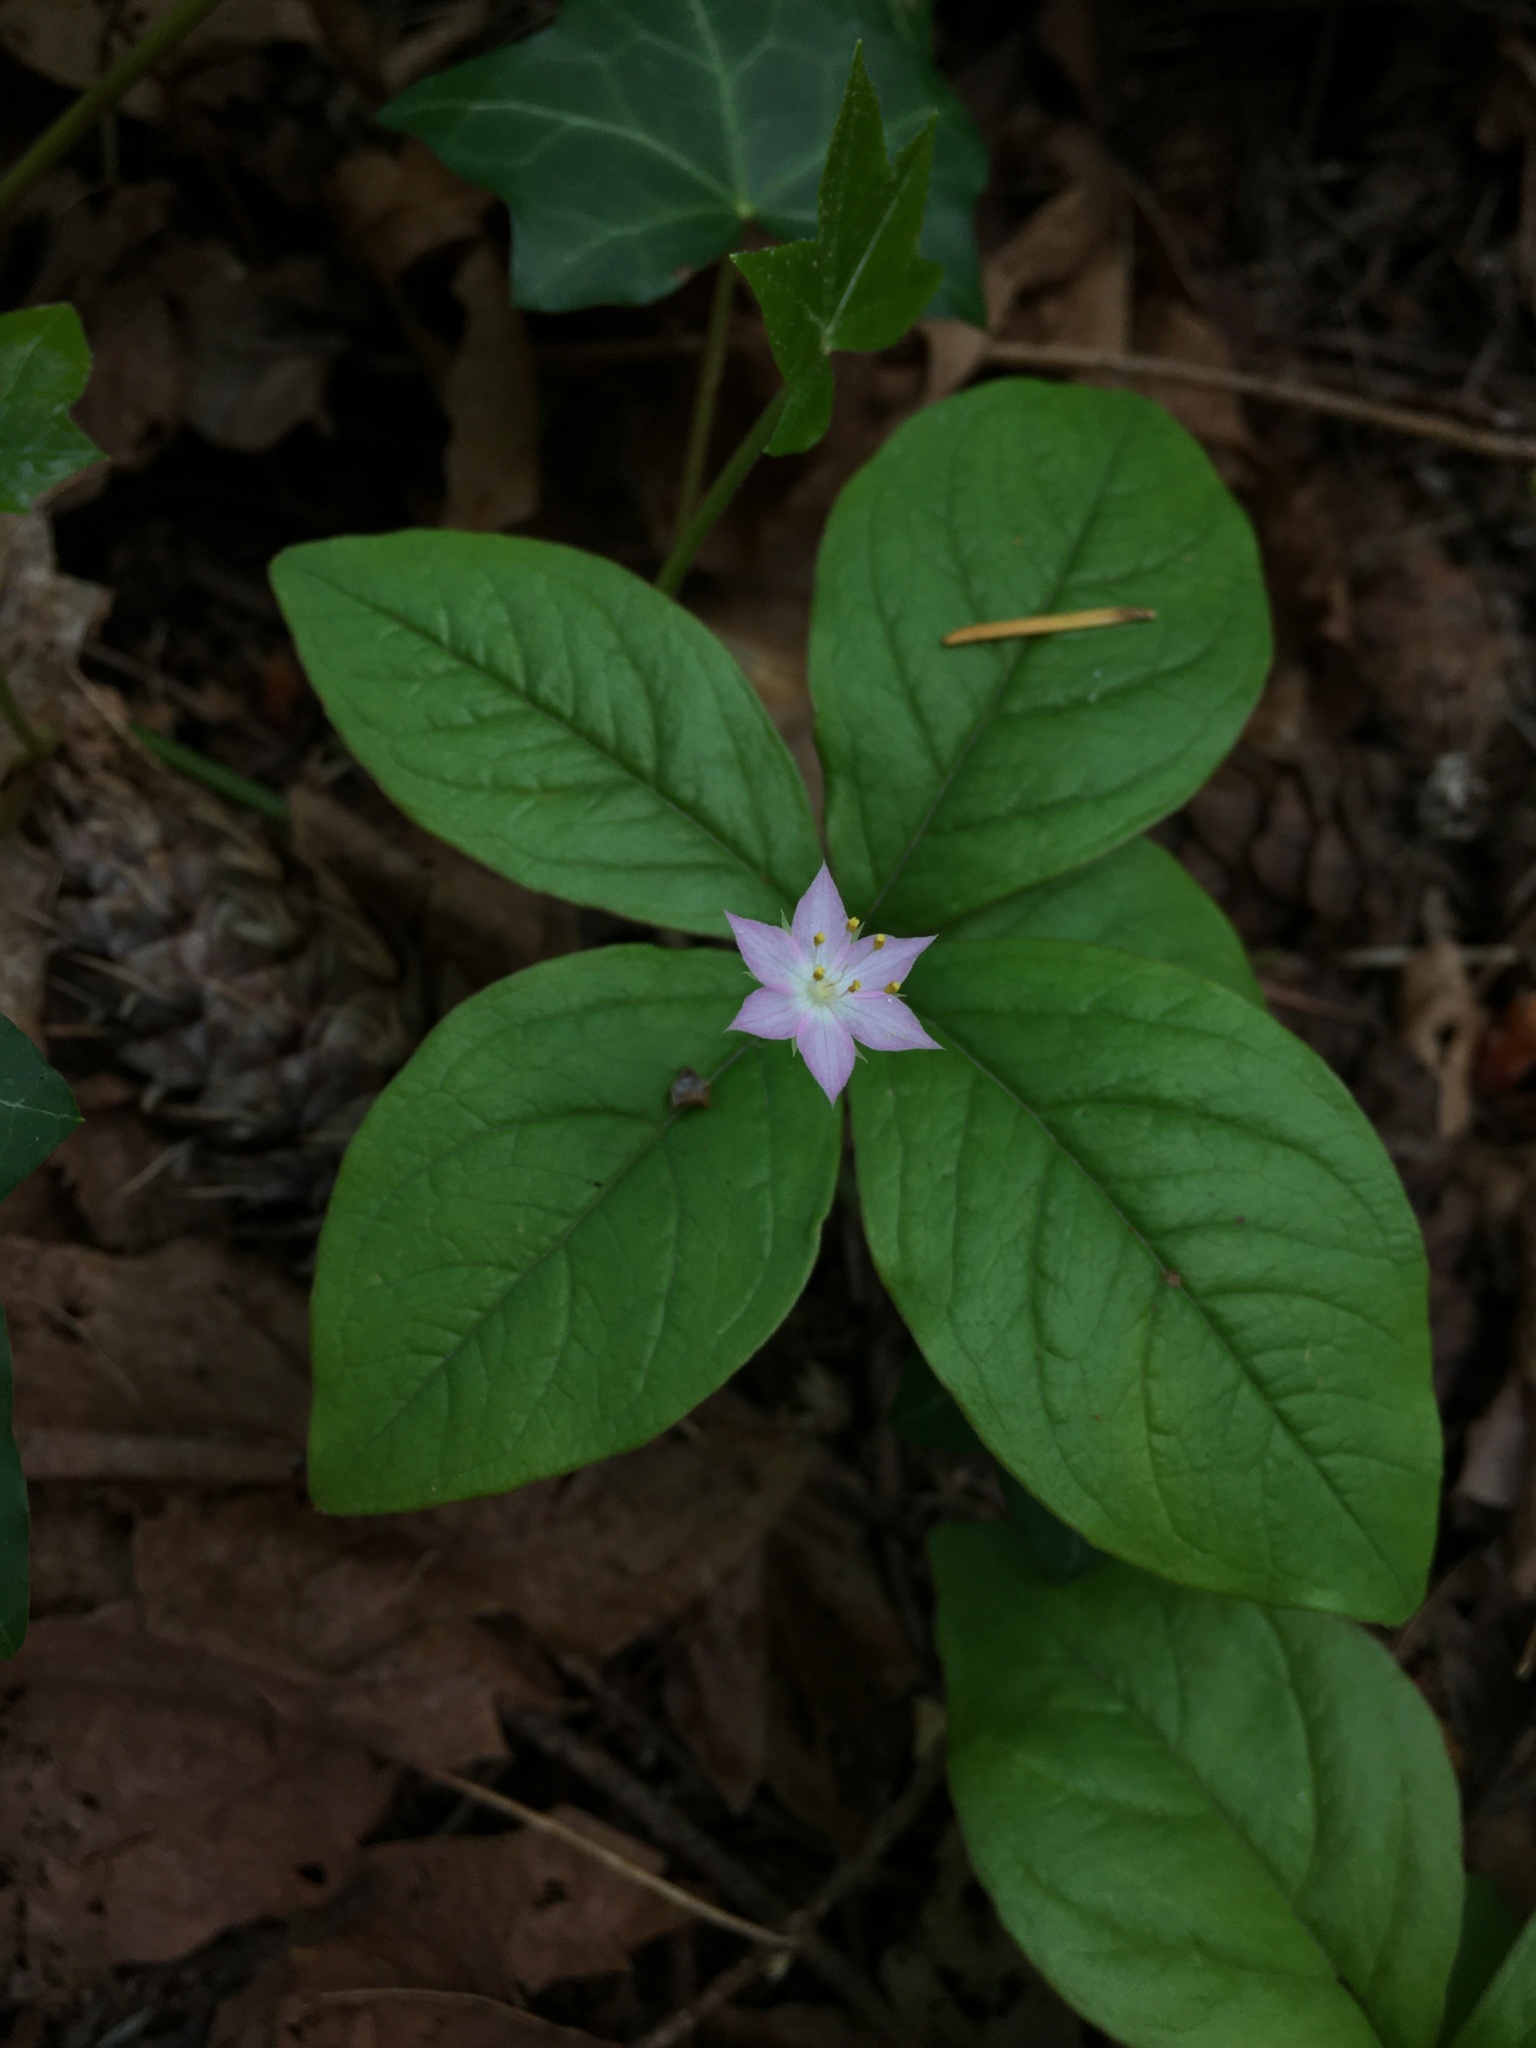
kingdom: Plantae
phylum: Tracheophyta
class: Magnoliopsida
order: Ericales
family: Primulaceae
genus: Lysimachia
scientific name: Lysimachia latifolia
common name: Pacific starflower
